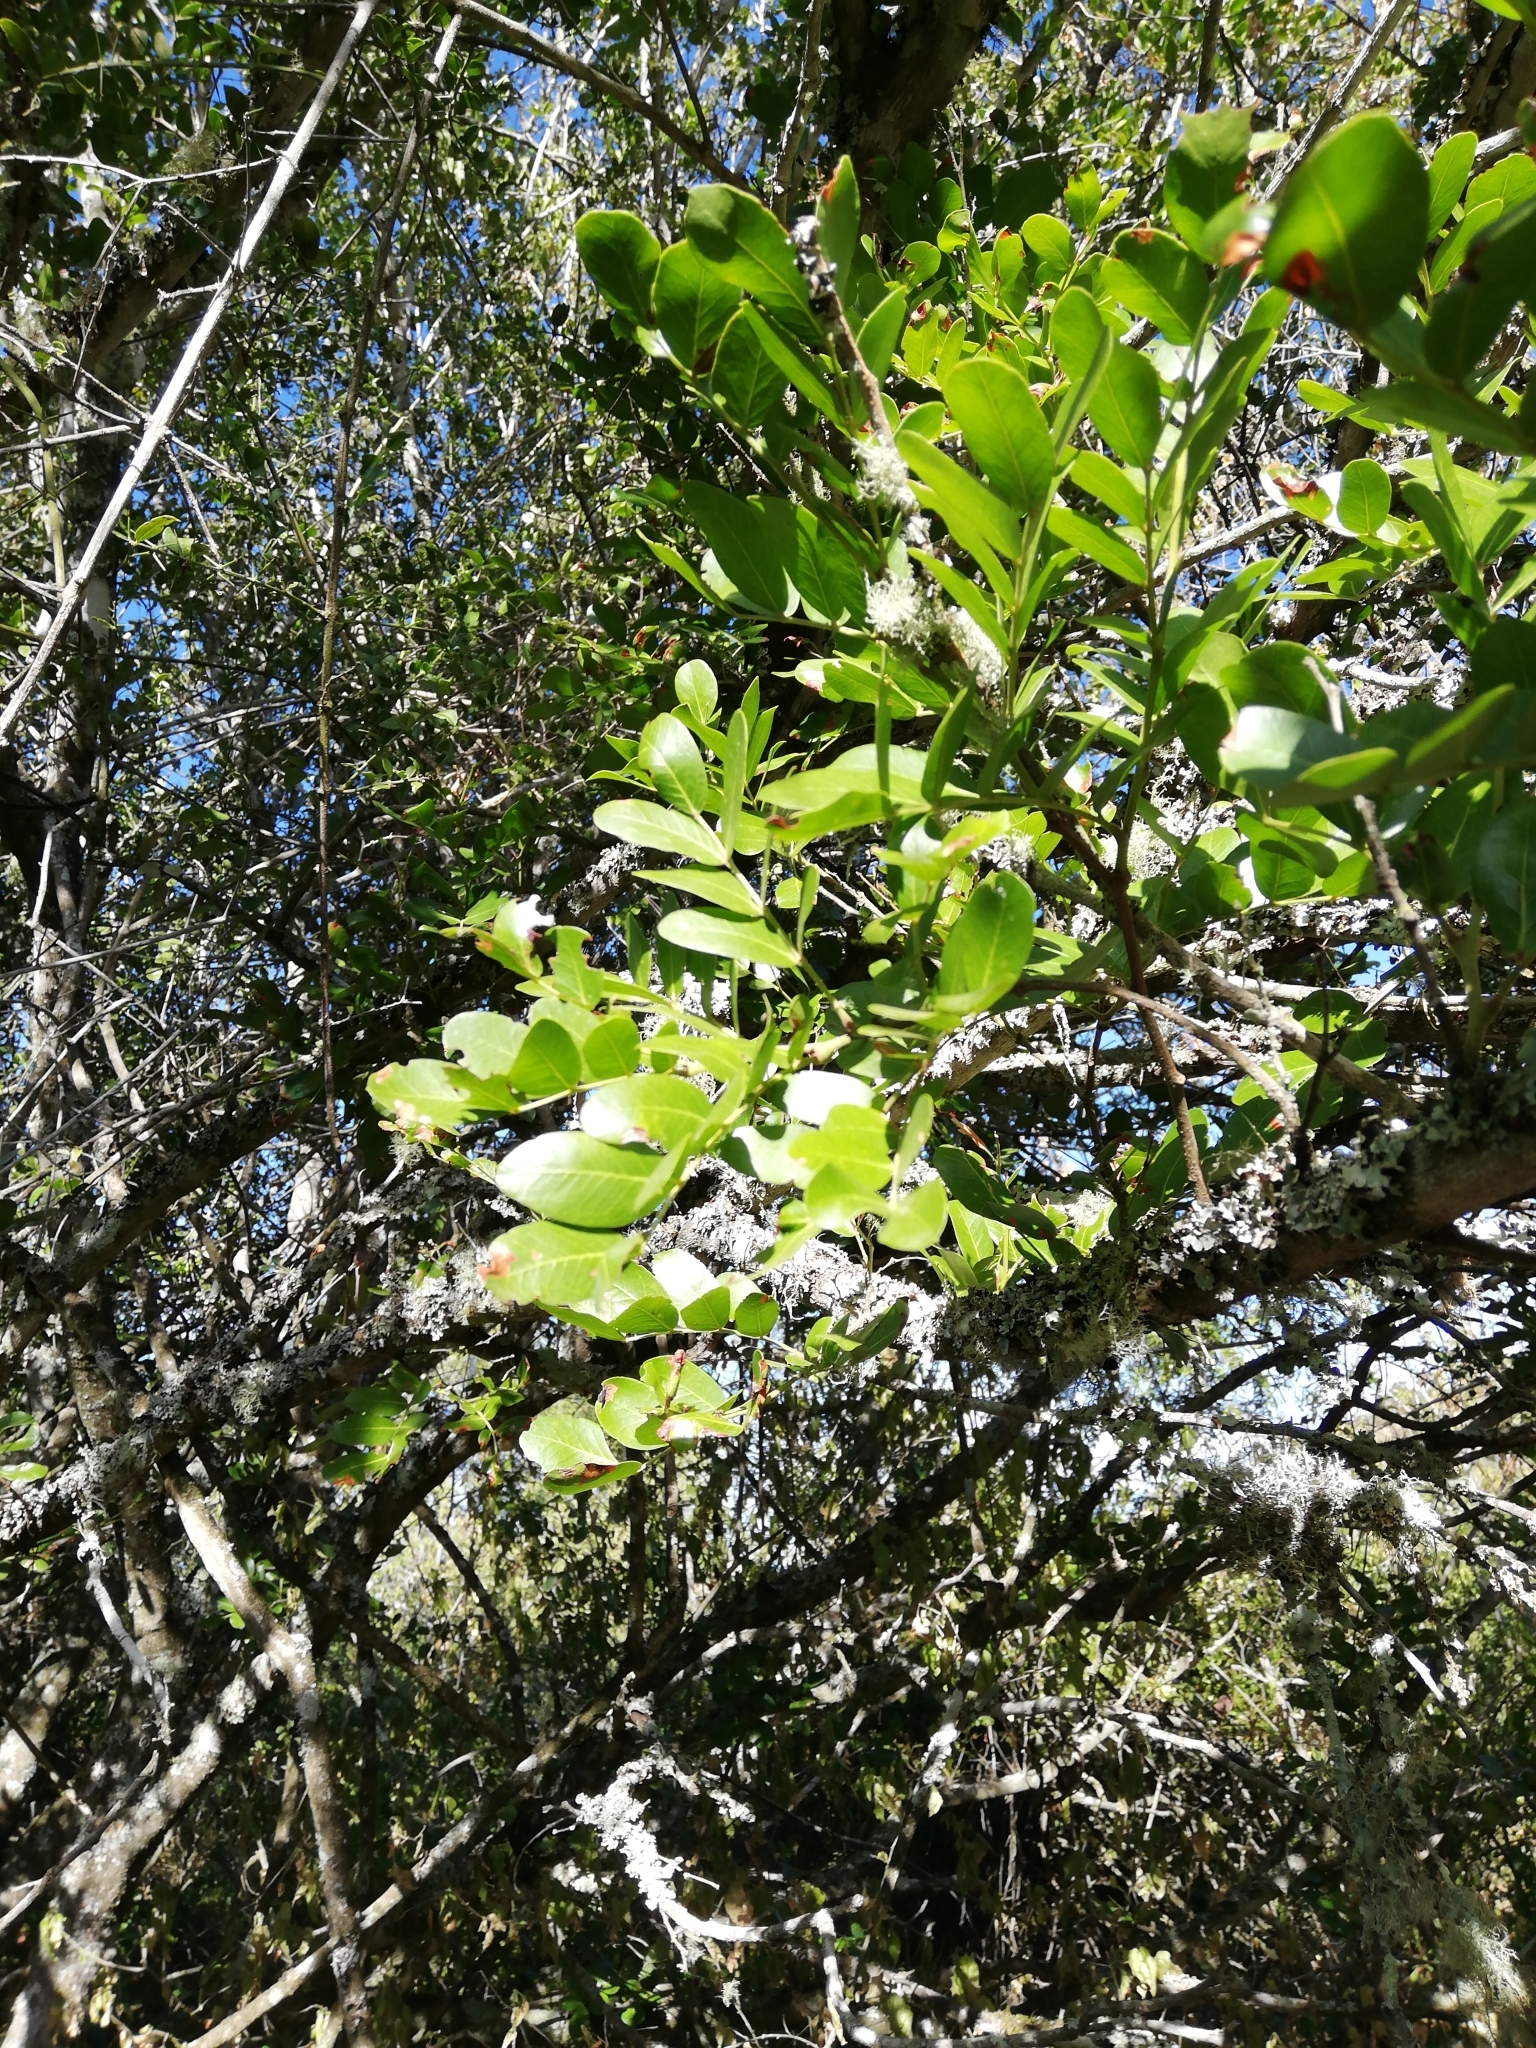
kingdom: Plantae
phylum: Tracheophyta
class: Magnoliopsida
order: Fabales
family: Fabaceae
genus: Schotia
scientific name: Schotia latifolia
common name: Bush boer-bean
